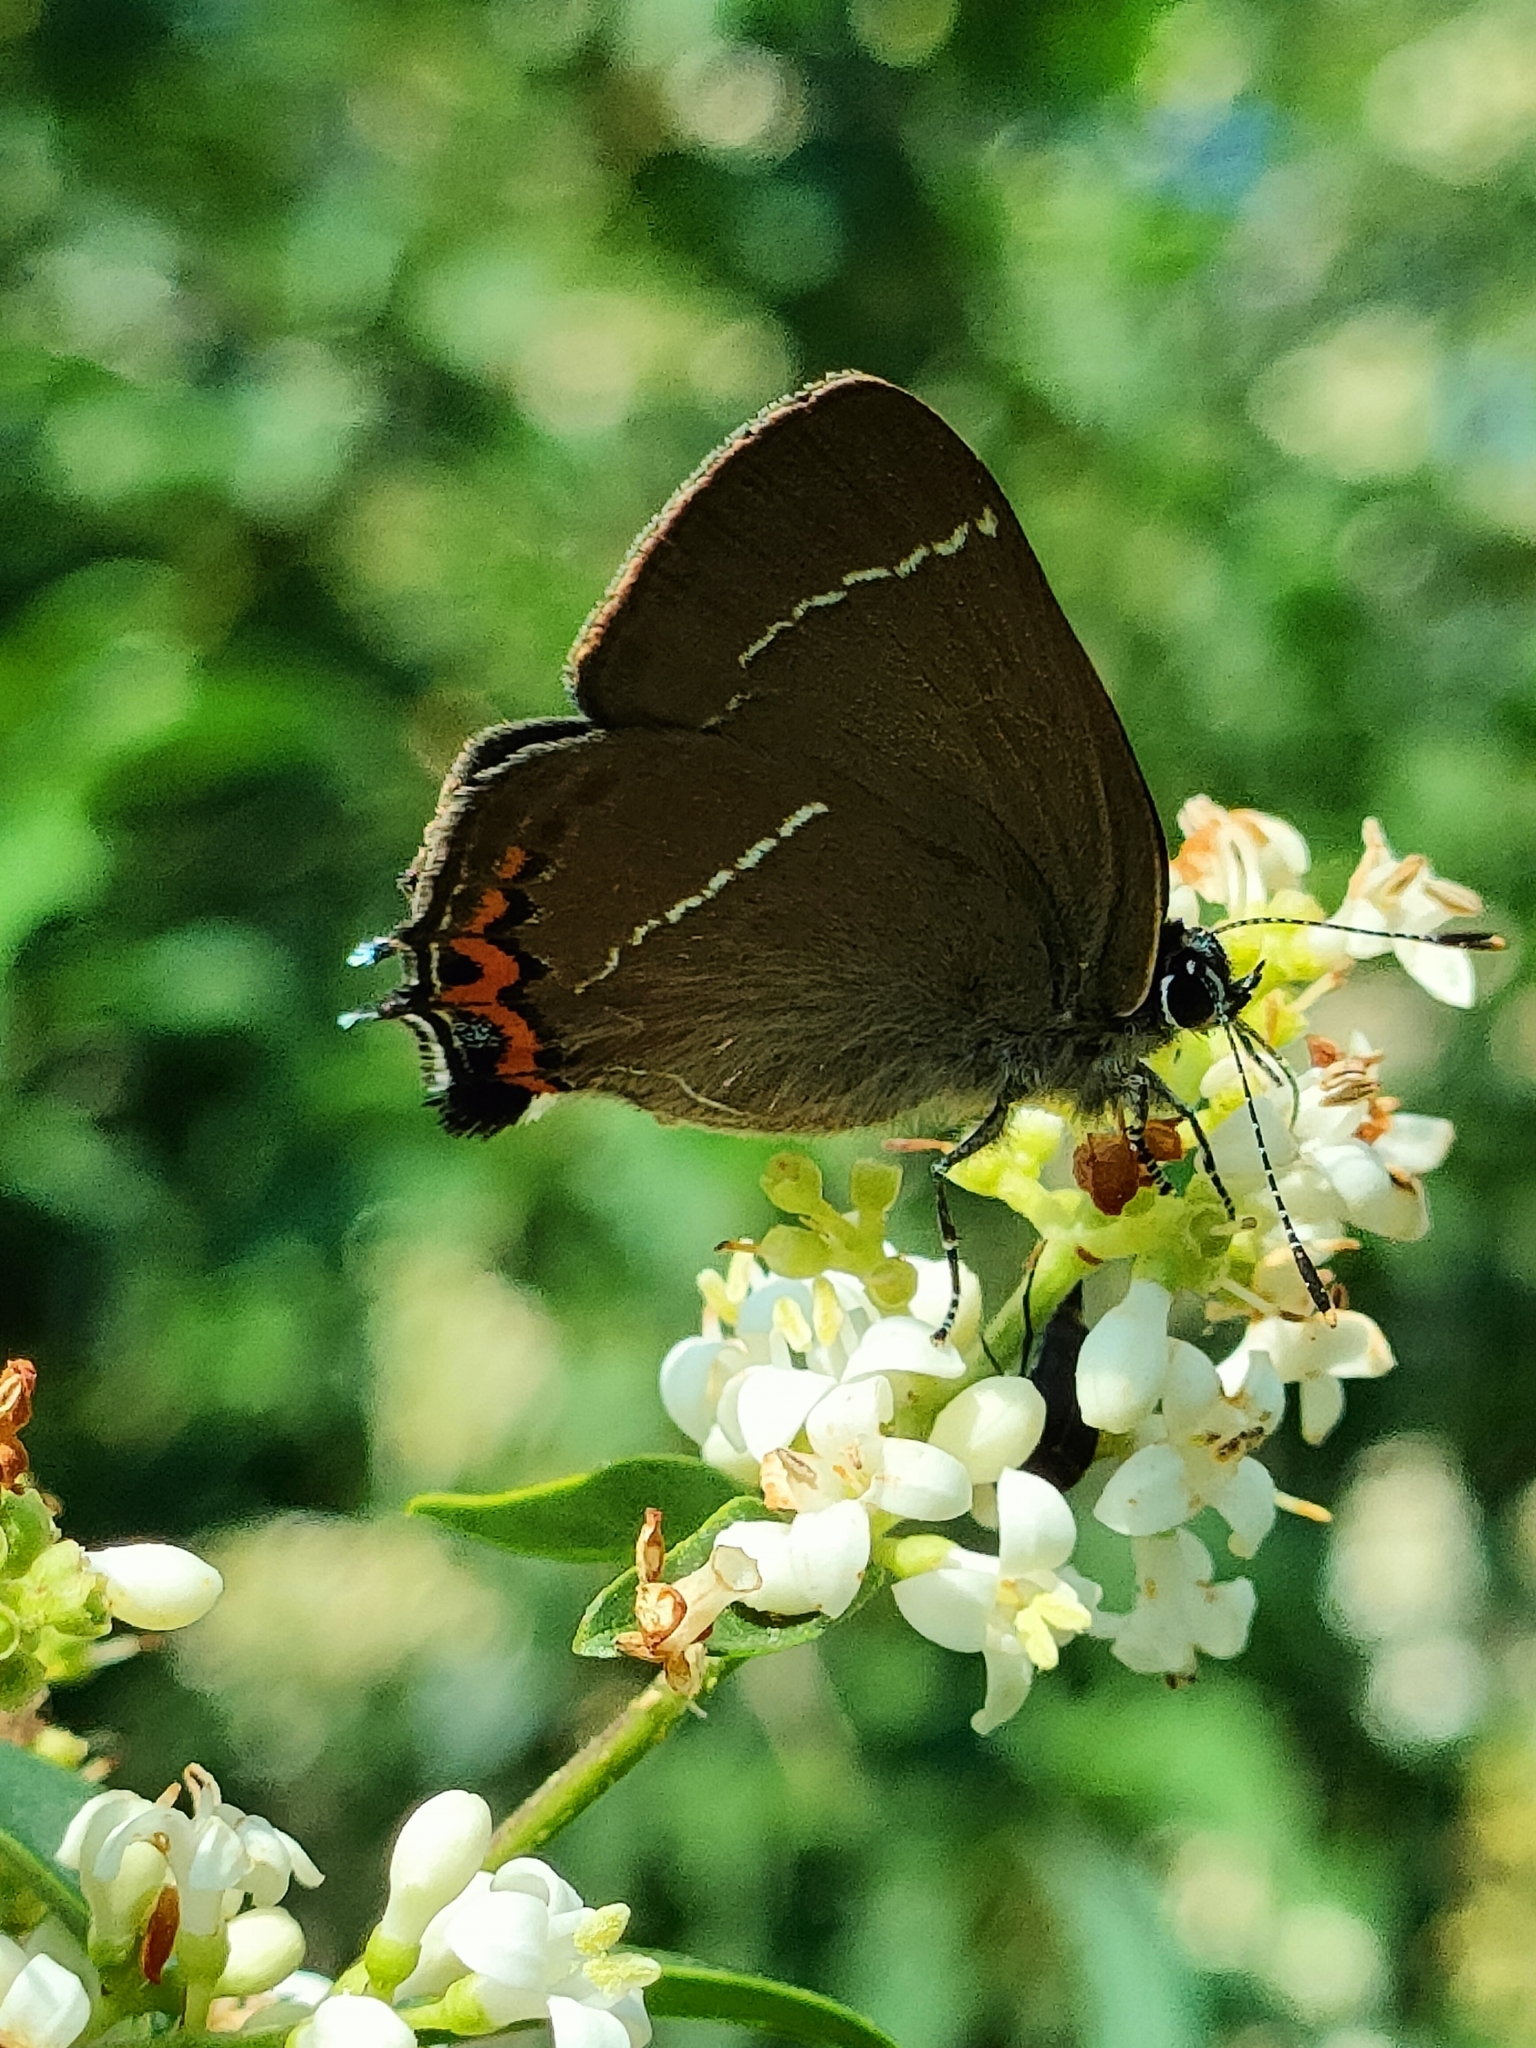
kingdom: Animalia
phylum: Arthropoda
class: Insecta
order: Lepidoptera
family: Lycaenidae
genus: Satyrium
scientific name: Satyrium w-album
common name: White-letter hairstreak
